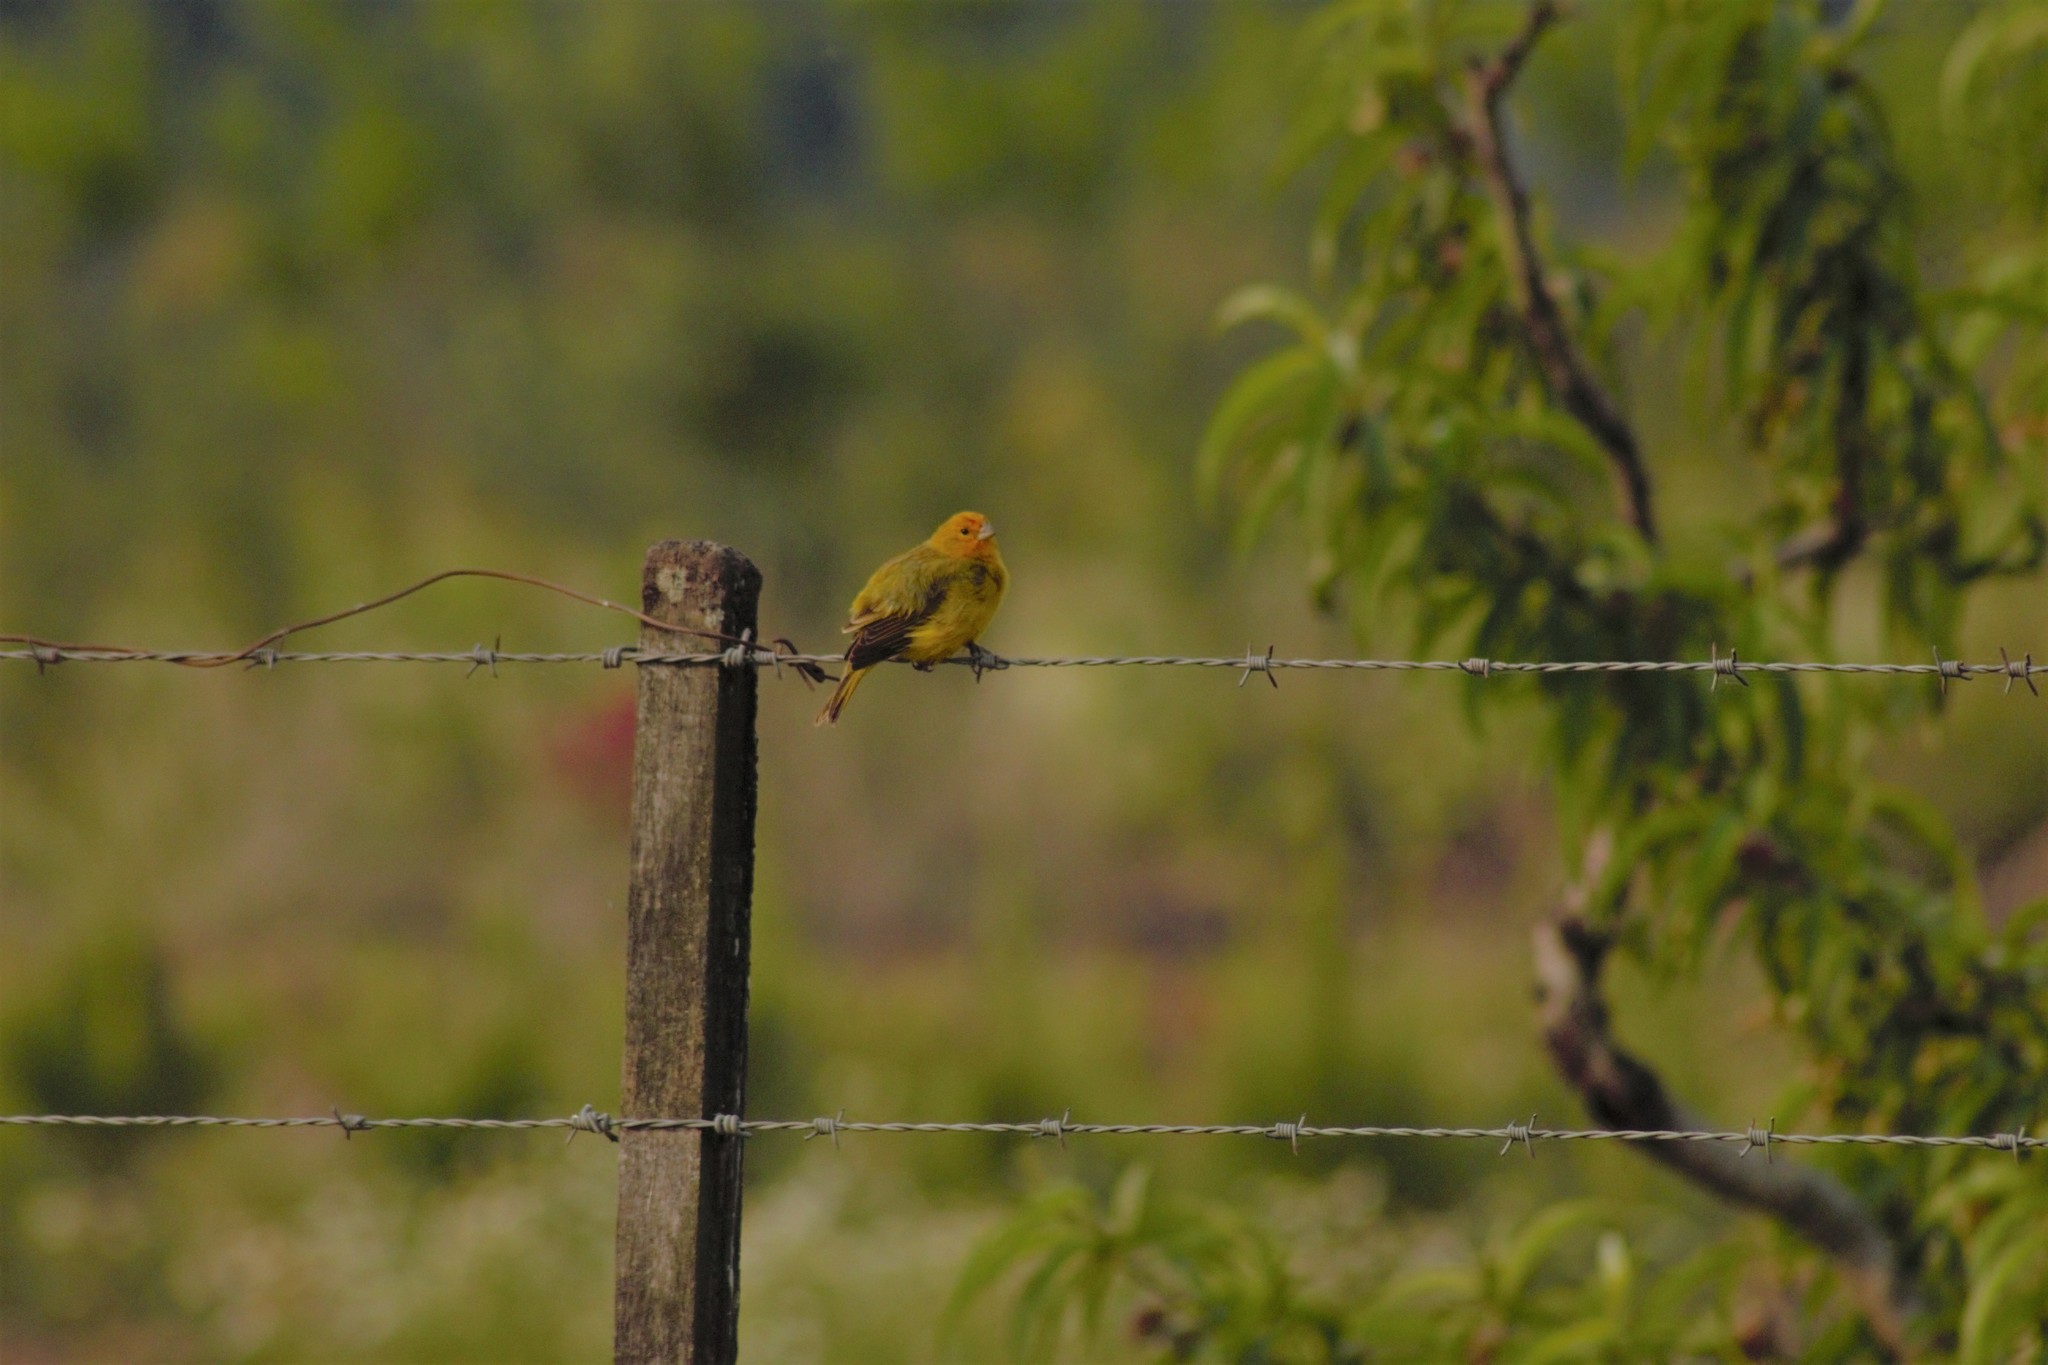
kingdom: Animalia
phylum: Chordata
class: Aves
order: Passeriformes
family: Thraupidae
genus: Sicalis
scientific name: Sicalis flaveola
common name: Saffron finch
